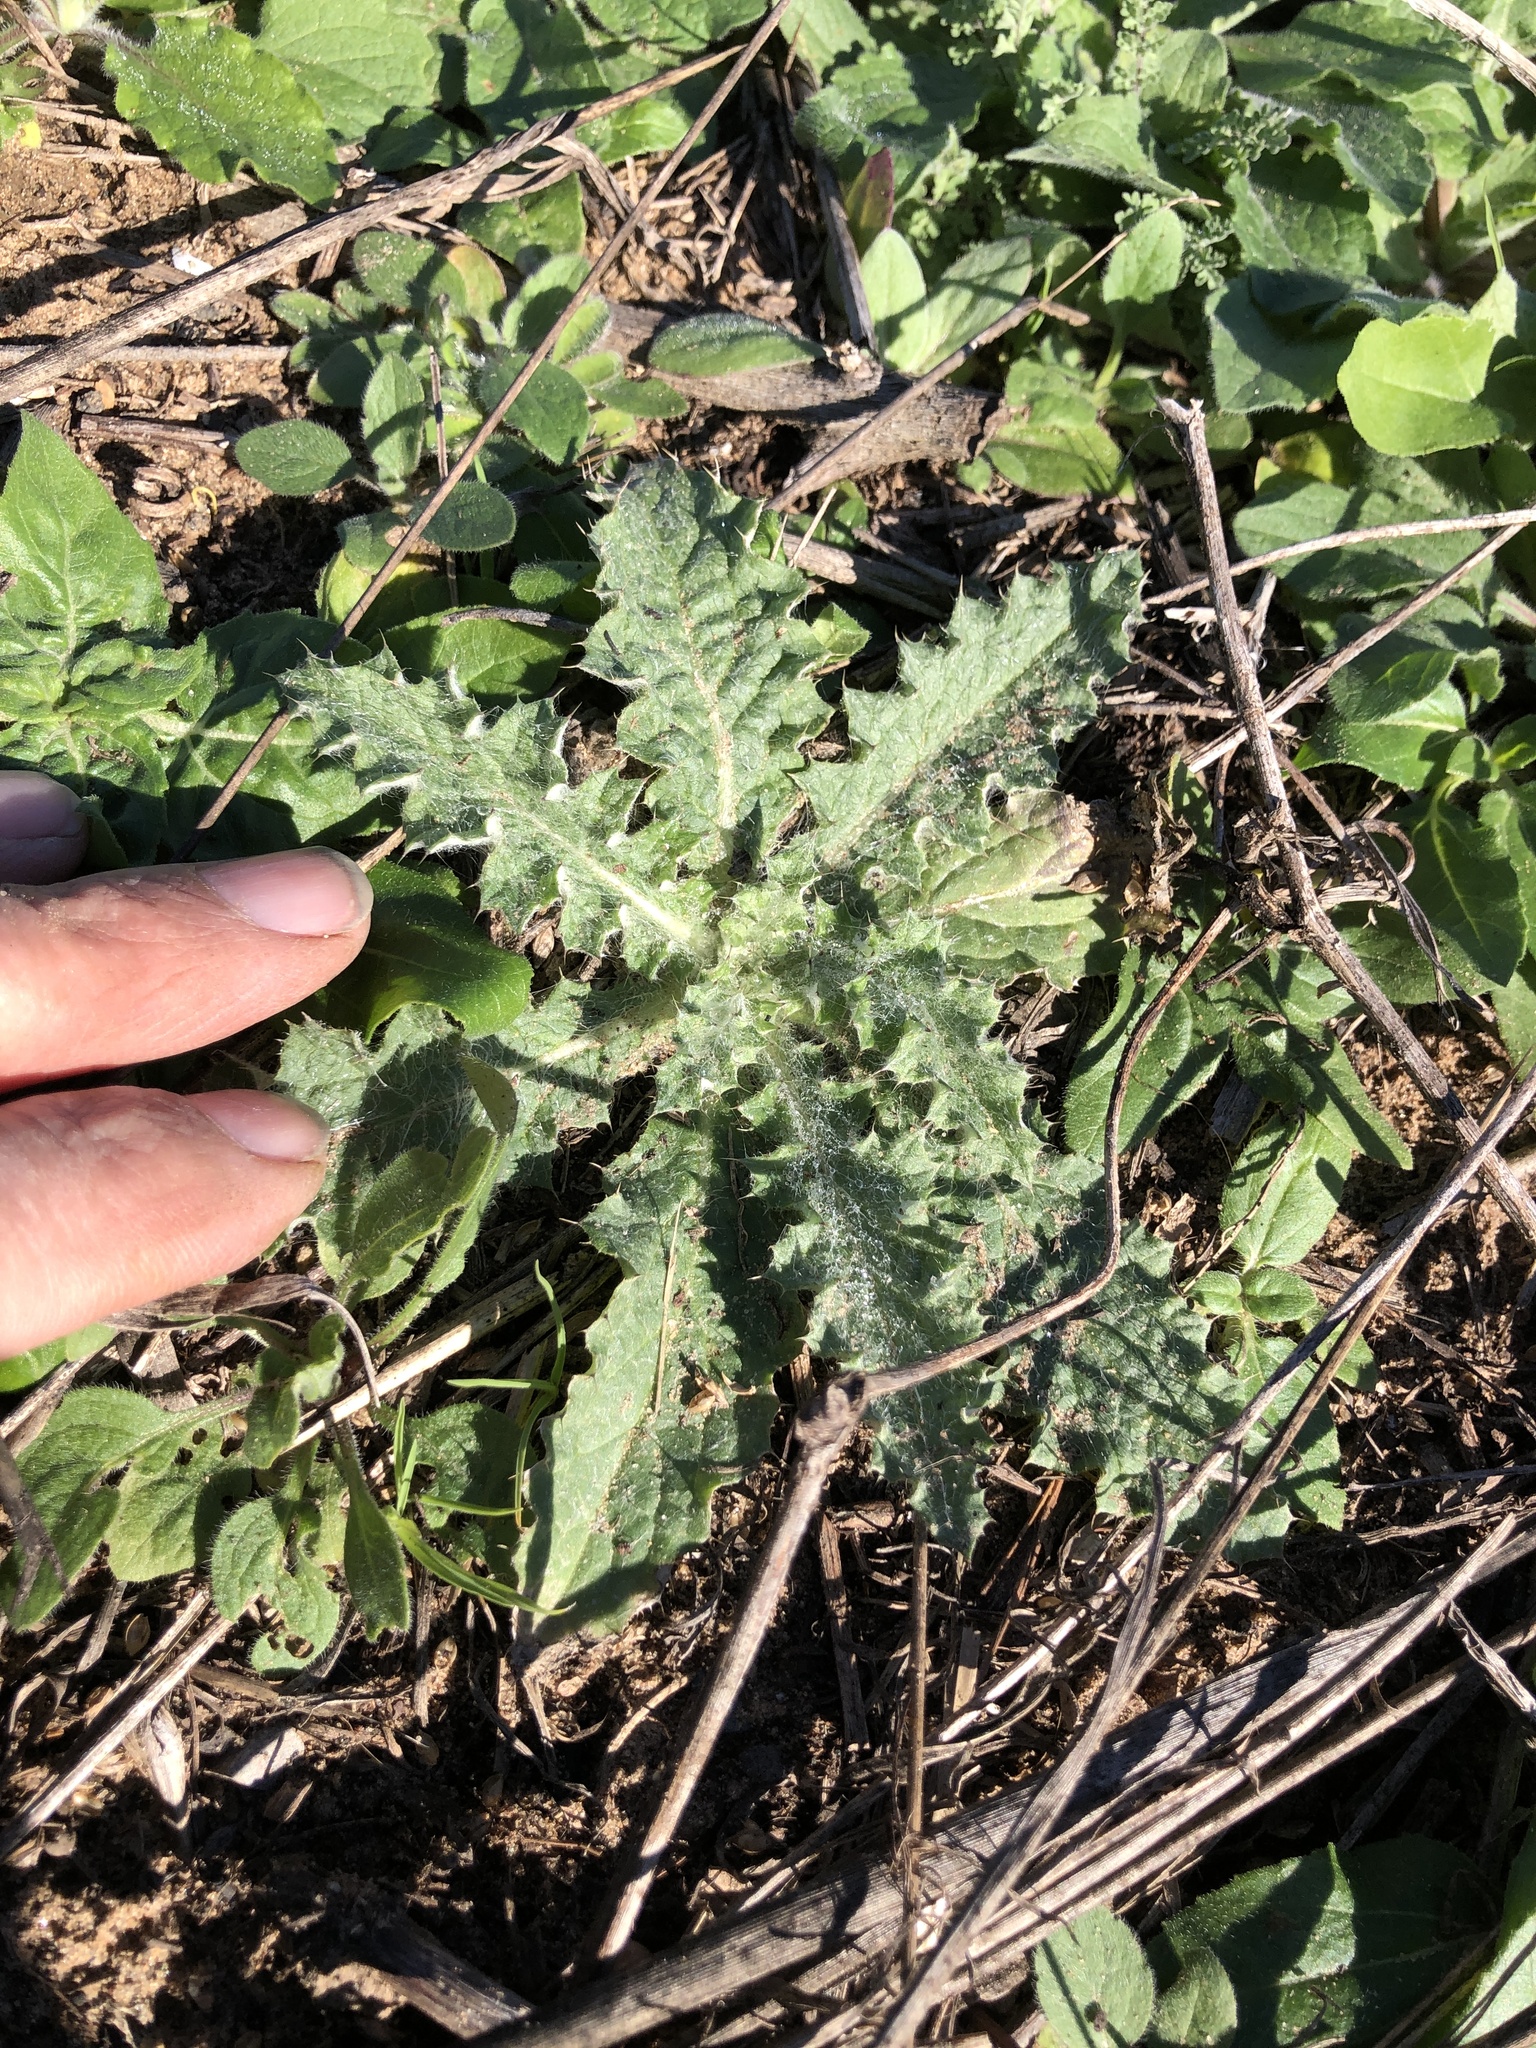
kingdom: Plantae
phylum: Tracheophyta
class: Magnoliopsida
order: Asterales
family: Asteraceae
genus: Cirsium
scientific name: Cirsium texanum
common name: Texas purple thistle
